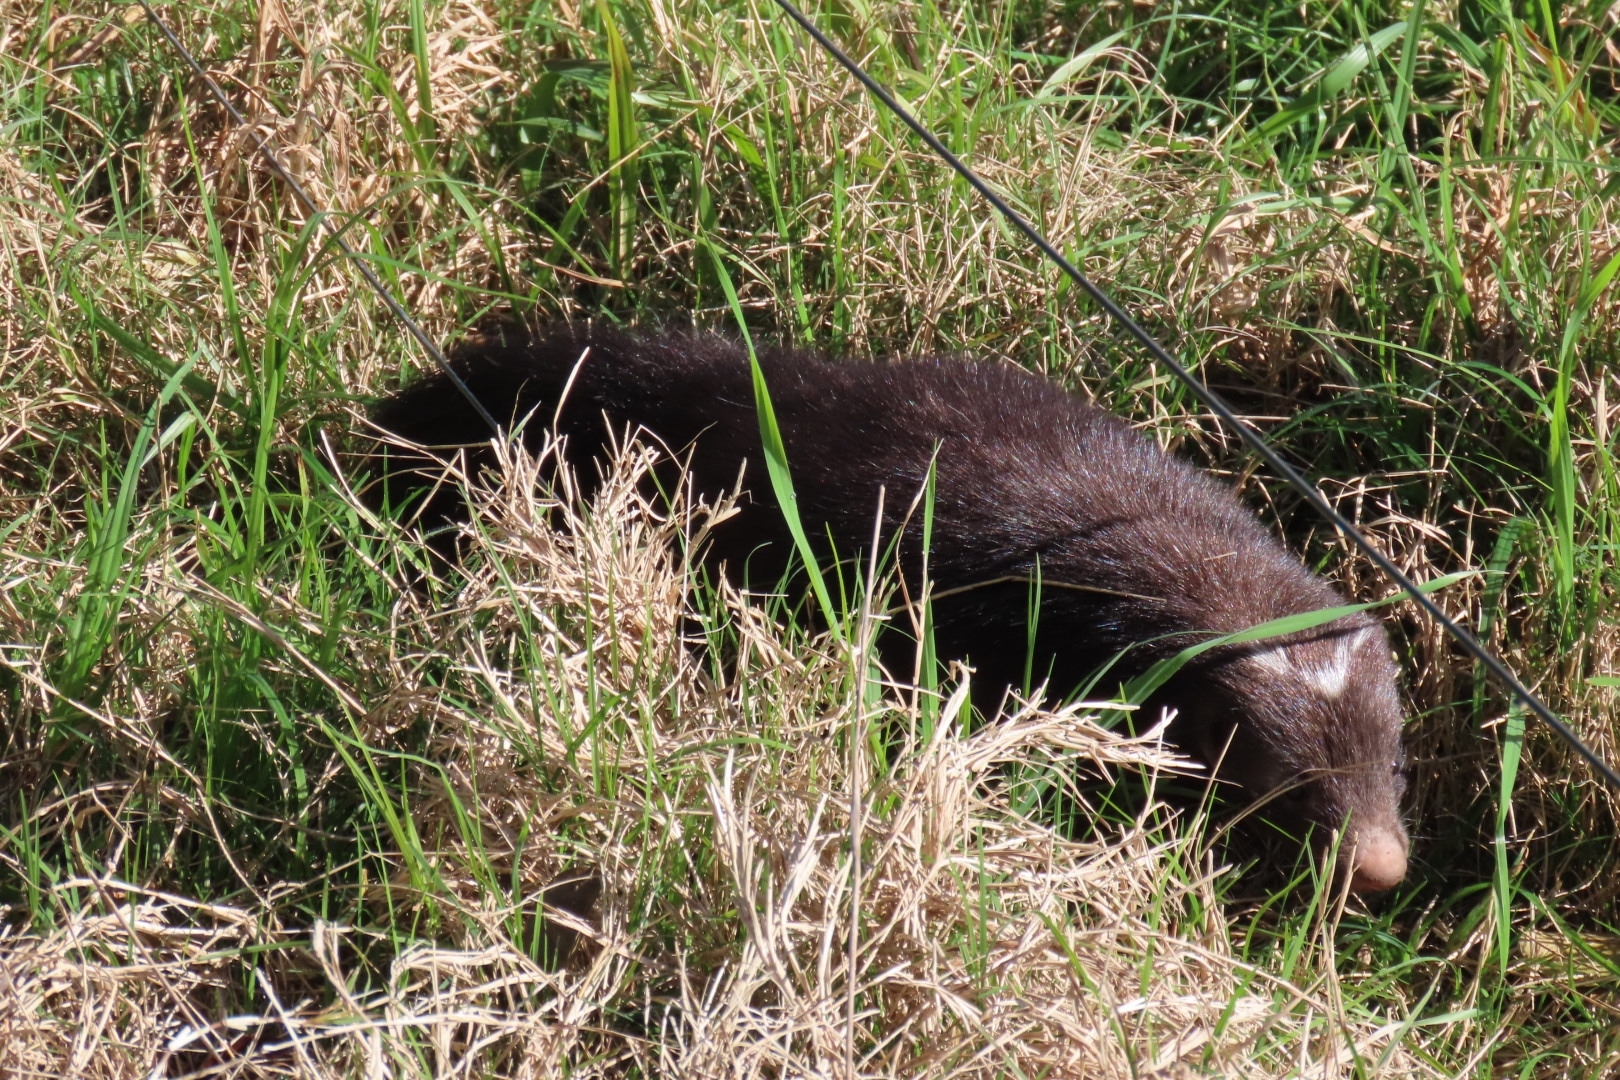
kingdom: Animalia
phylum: Chordata
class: Mammalia
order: Carnivora
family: Mephitidae
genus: Conepatus
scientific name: Conepatus chinga
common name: Molina's hog-nosed skunk
